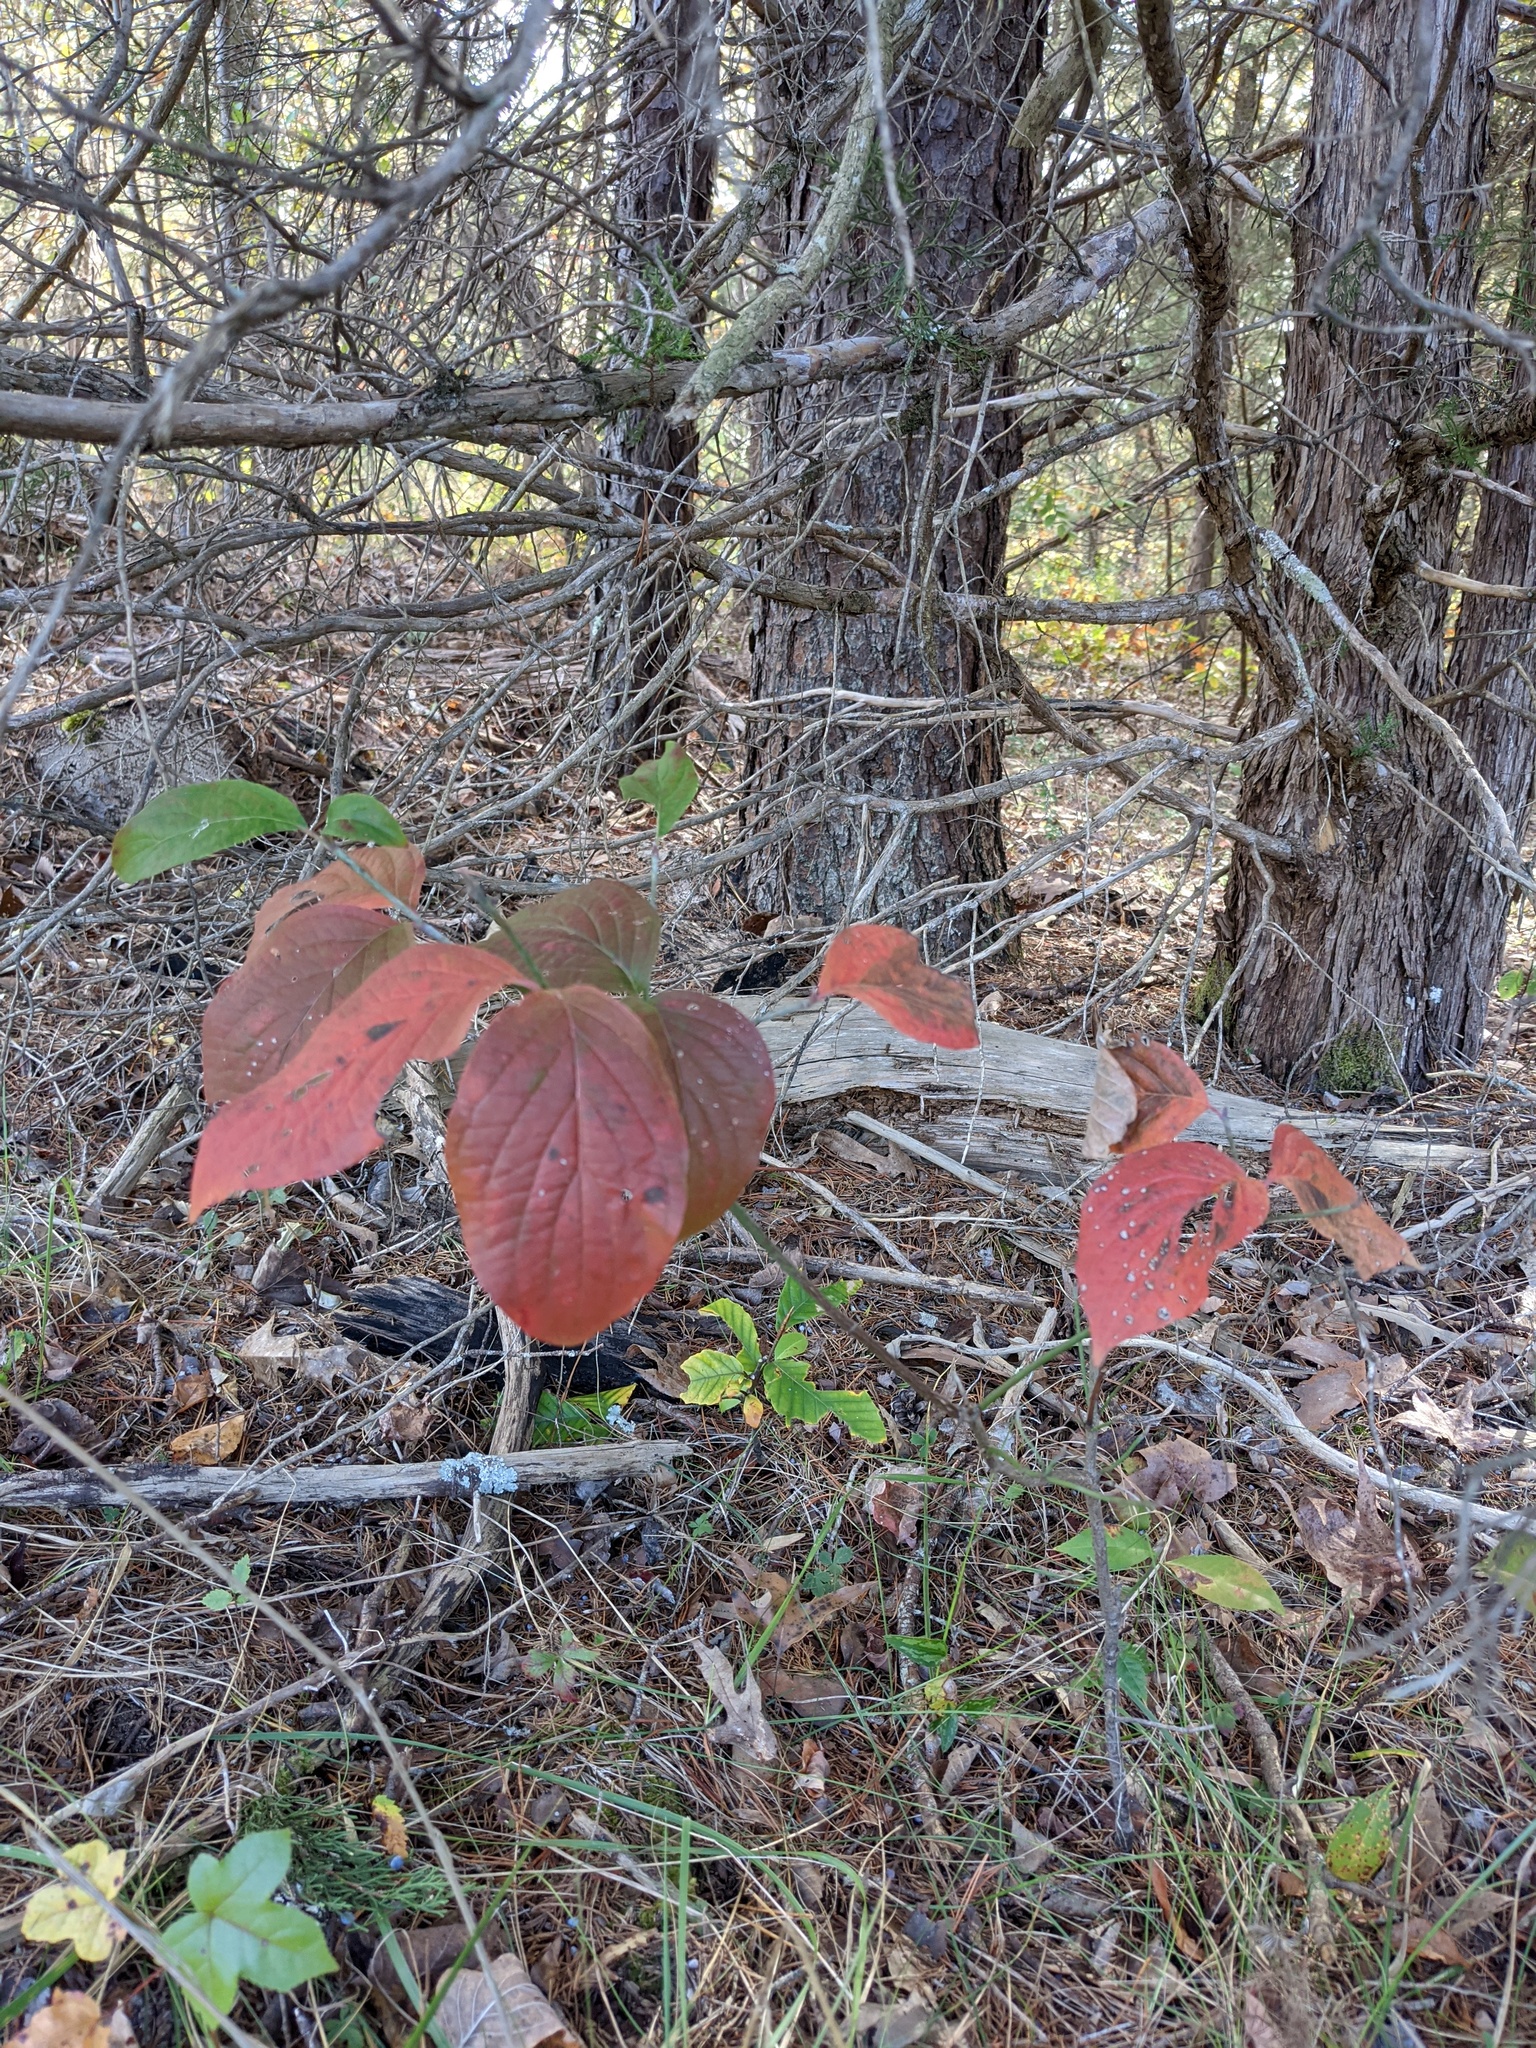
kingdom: Plantae
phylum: Tracheophyta
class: Magnoliopsida
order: Cornales
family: Cornaceae
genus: Cornus
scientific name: Cornus florida
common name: Flowering dogwood
